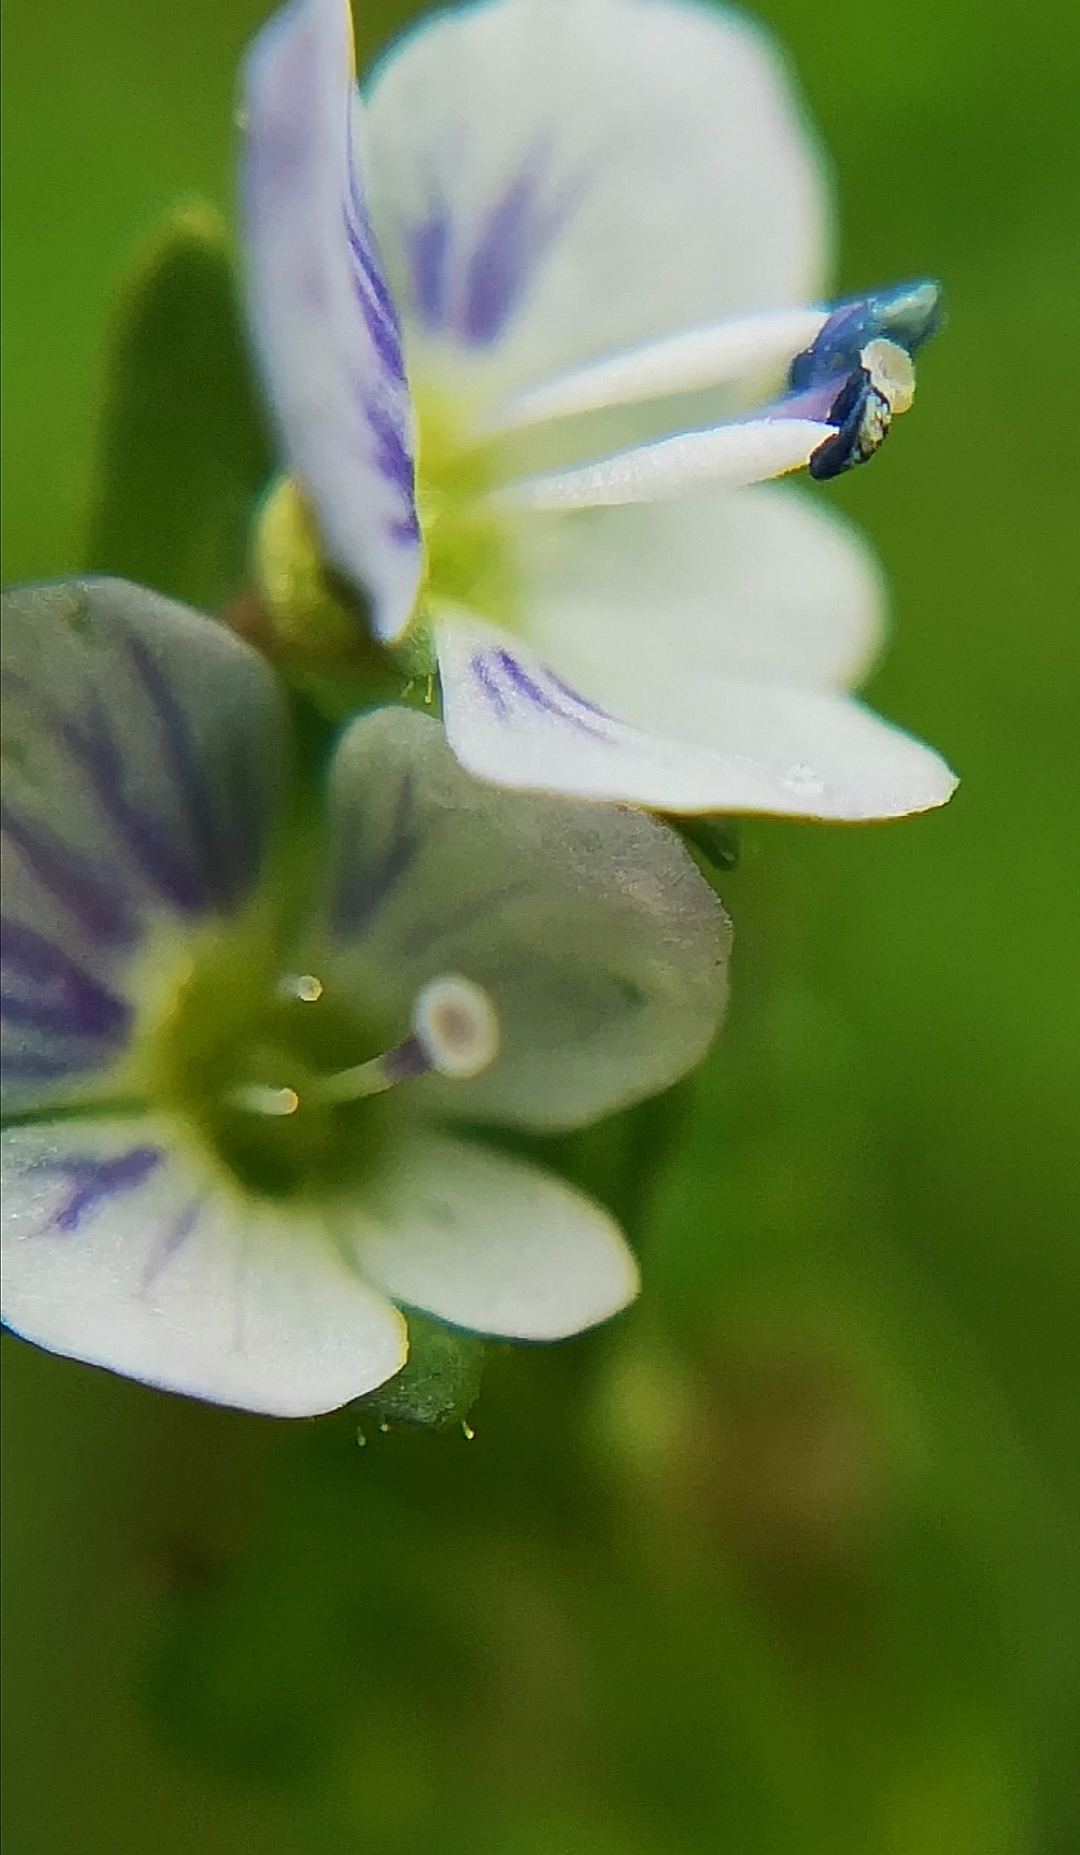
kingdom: Plantae
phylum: Tracheophyta
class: Magnoliopsida
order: Lamiales
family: Plantaginaceae
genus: Veronica
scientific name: Veronica serpyllifolia
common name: Thyme-leaved speedwell
